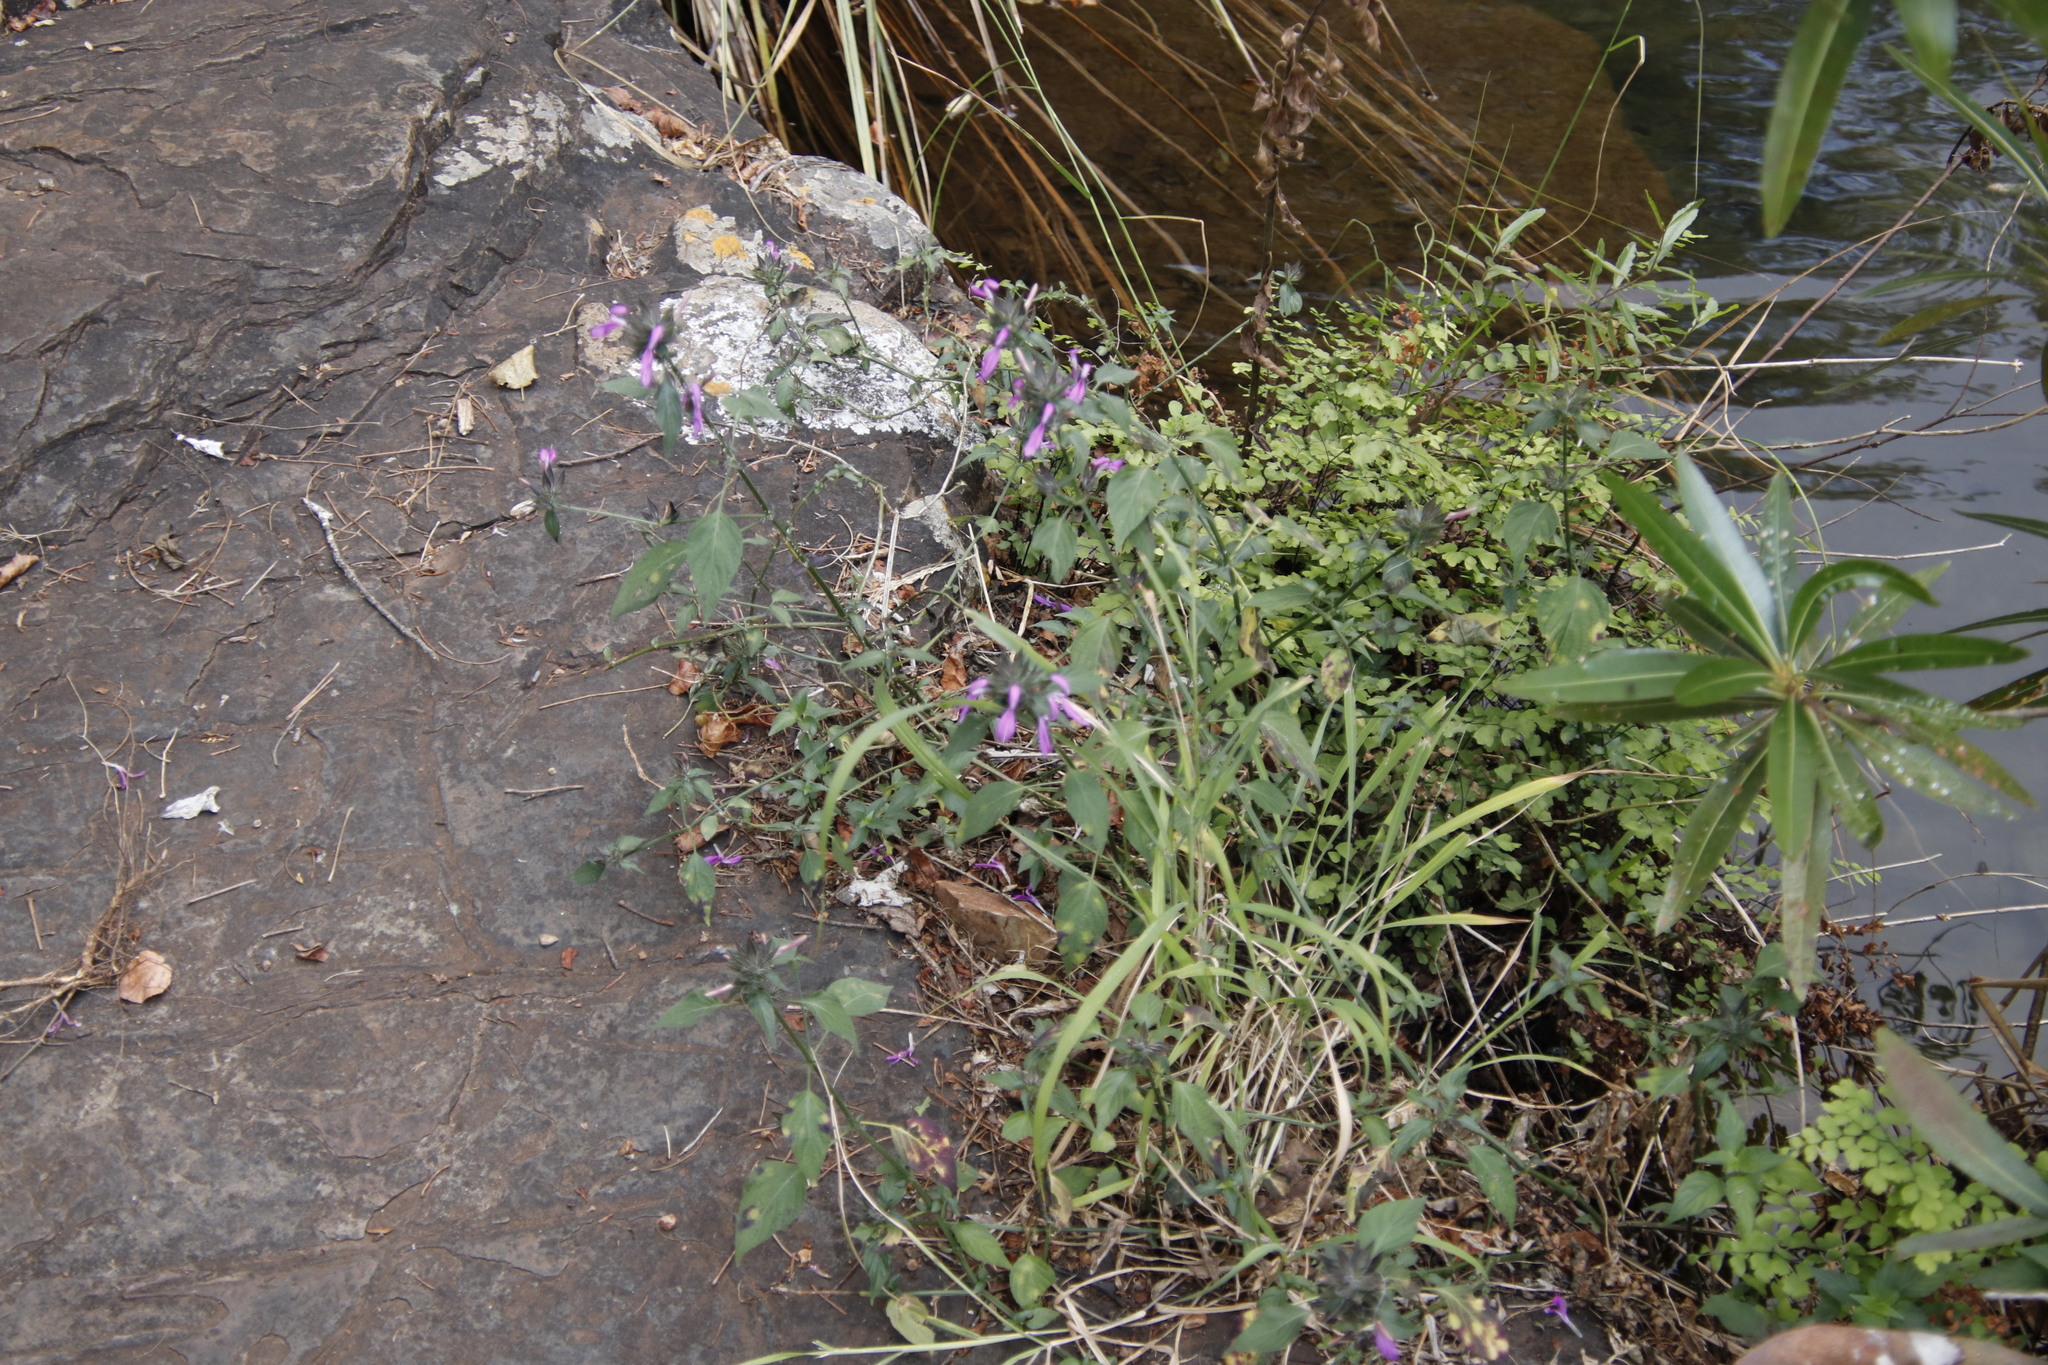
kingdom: Plantae
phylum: Tracheophyta
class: Magnoliopsida
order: Lamiales
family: Acanthaceae
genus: Dicliptera
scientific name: Dicliptera clinopodia
